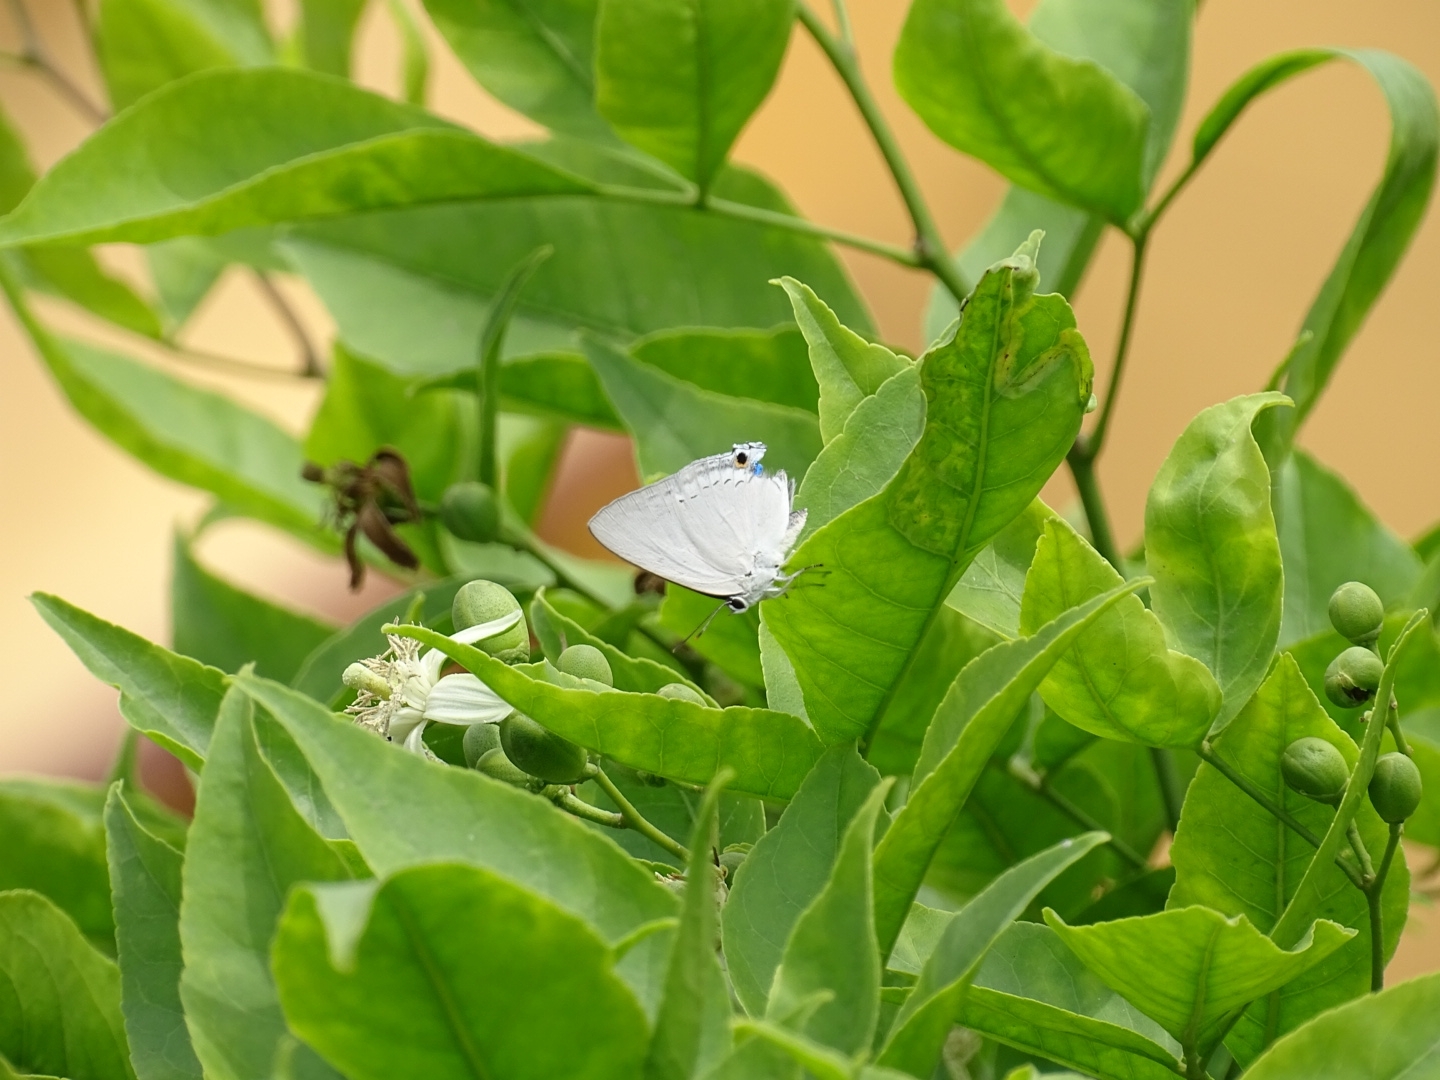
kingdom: Animalia
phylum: Arthropoda
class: Insecta
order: Lepidoptera
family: Lycaenidae
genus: Tajuria
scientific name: Tajuria cippus
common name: Peacock royal
